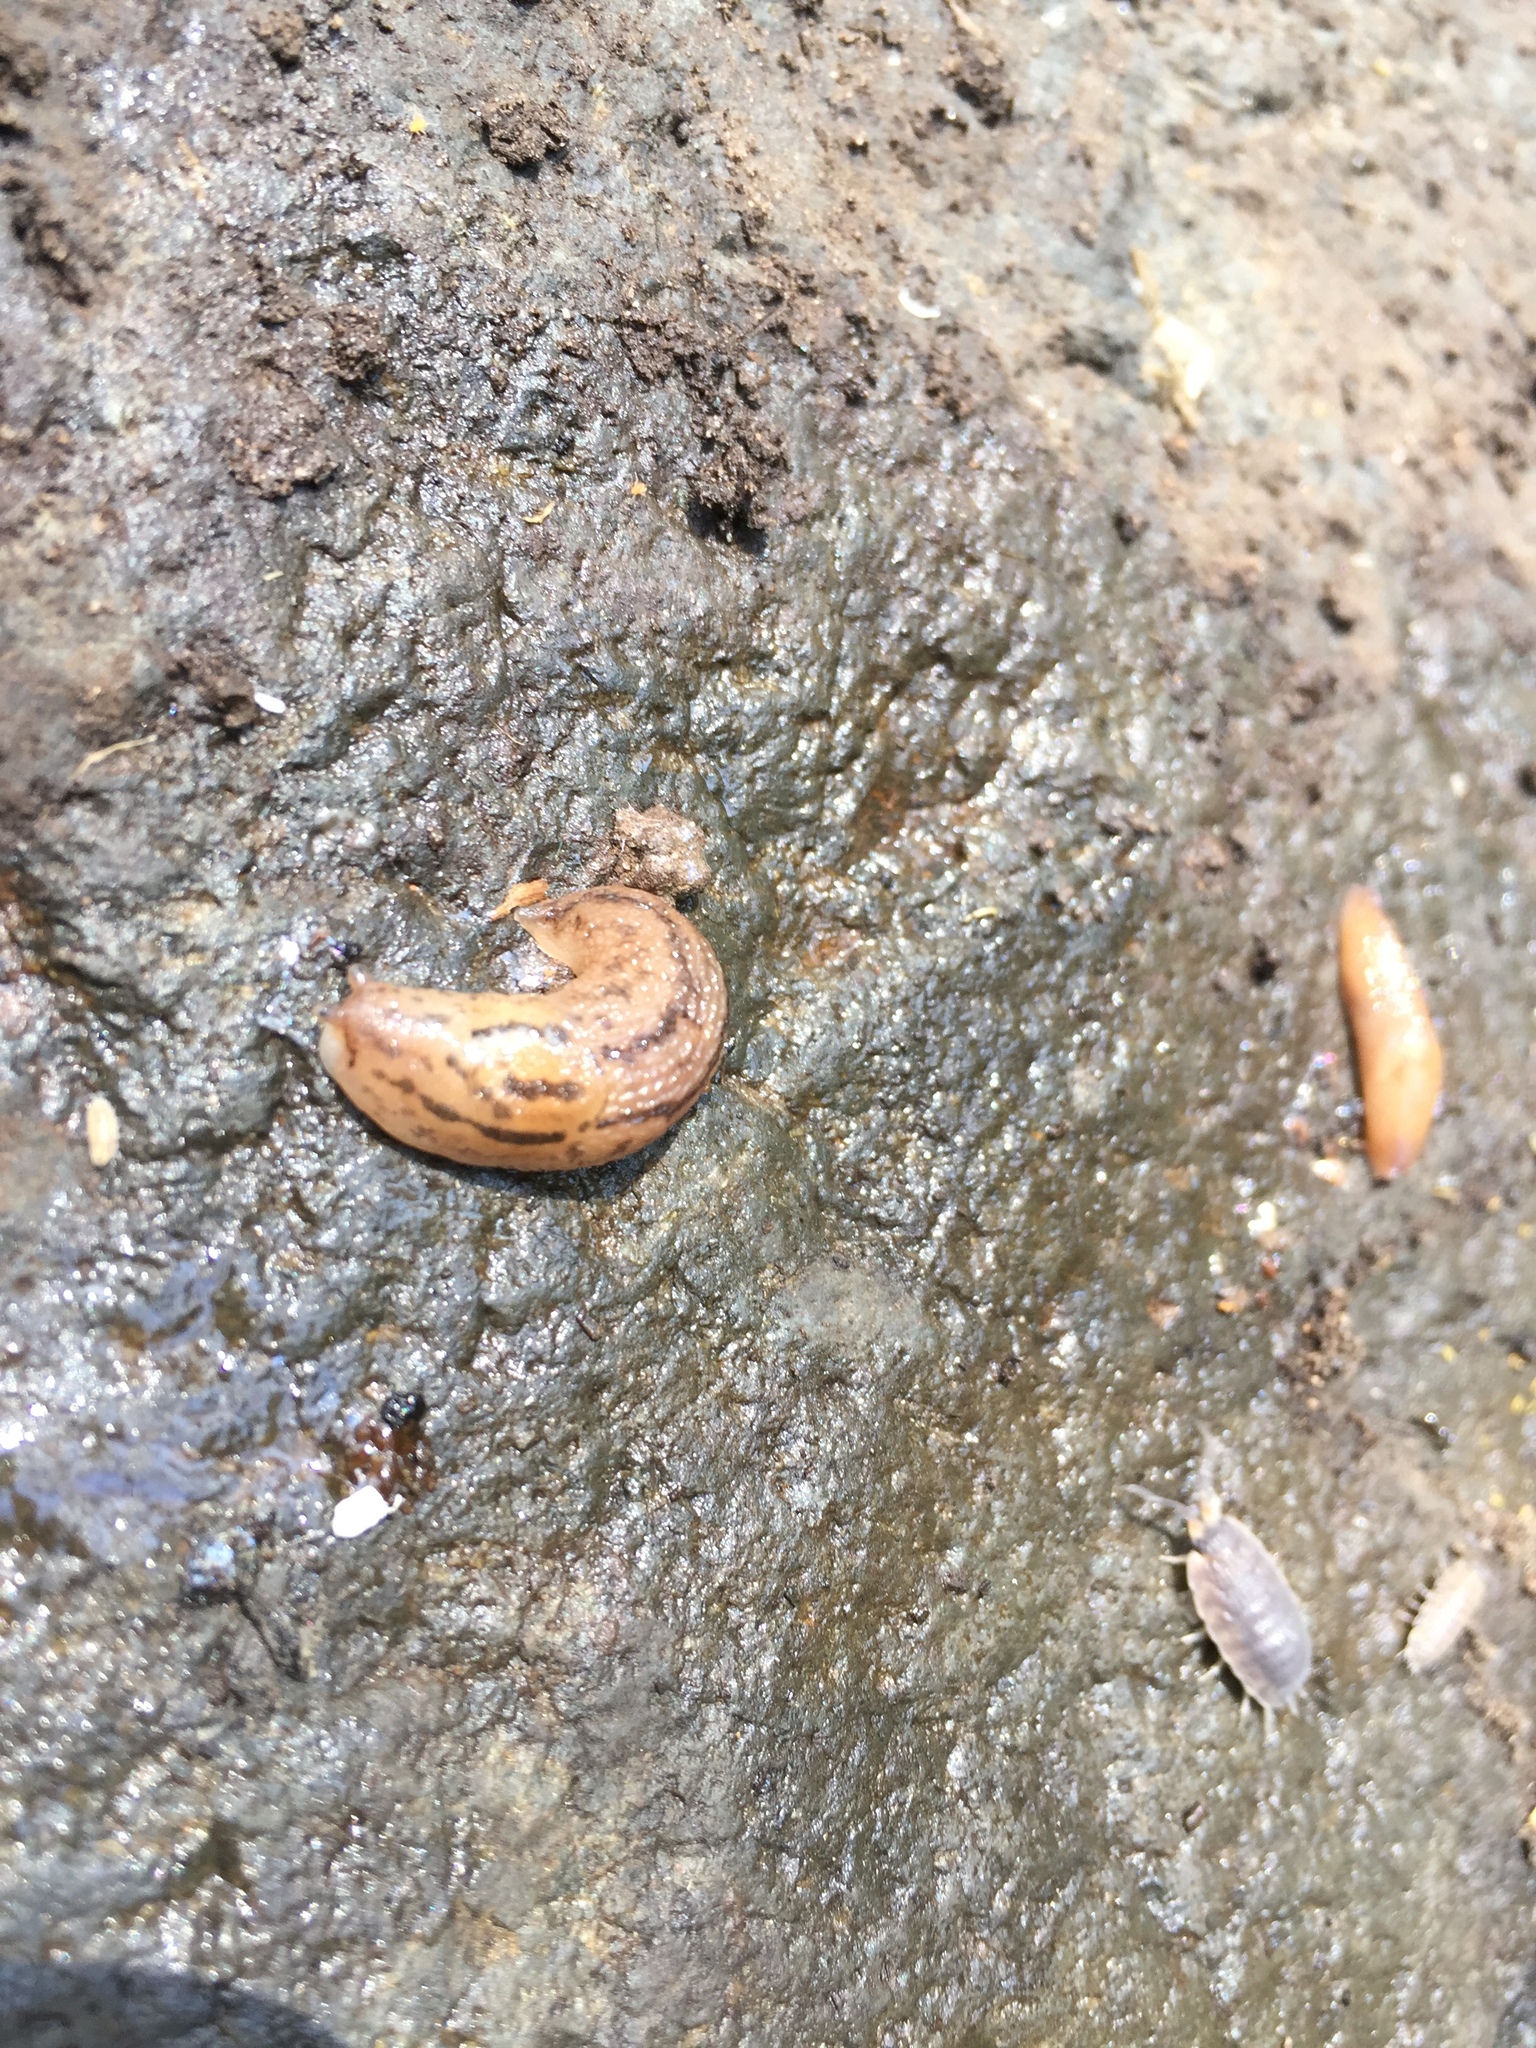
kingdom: Animalia
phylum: Mollusca
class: Gastropoda
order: Stylommatophora
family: Limacidae
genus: Ambigolimax
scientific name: Ambigolimax
